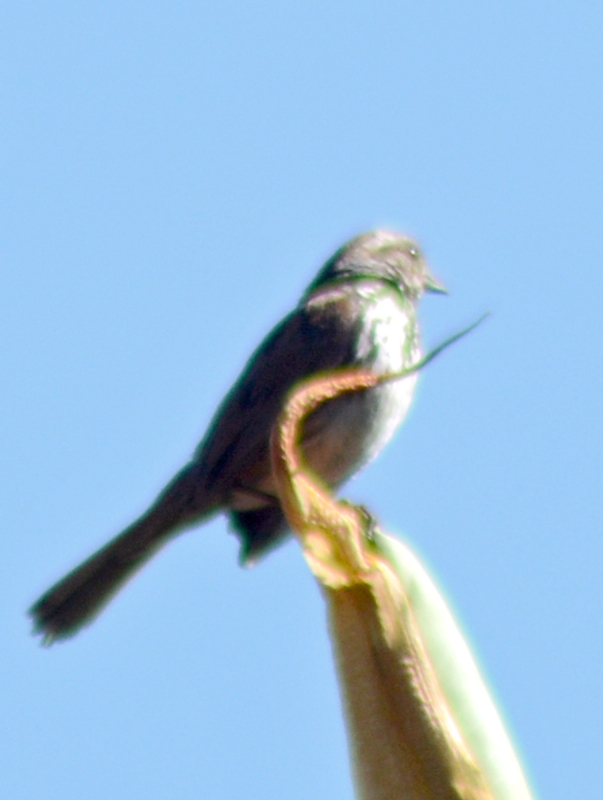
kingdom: Animalia
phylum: Chordata
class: Aves
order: Passeriformes
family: Passerellidae
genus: Melospiza
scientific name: Melospiza melodia
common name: Song sparrow
